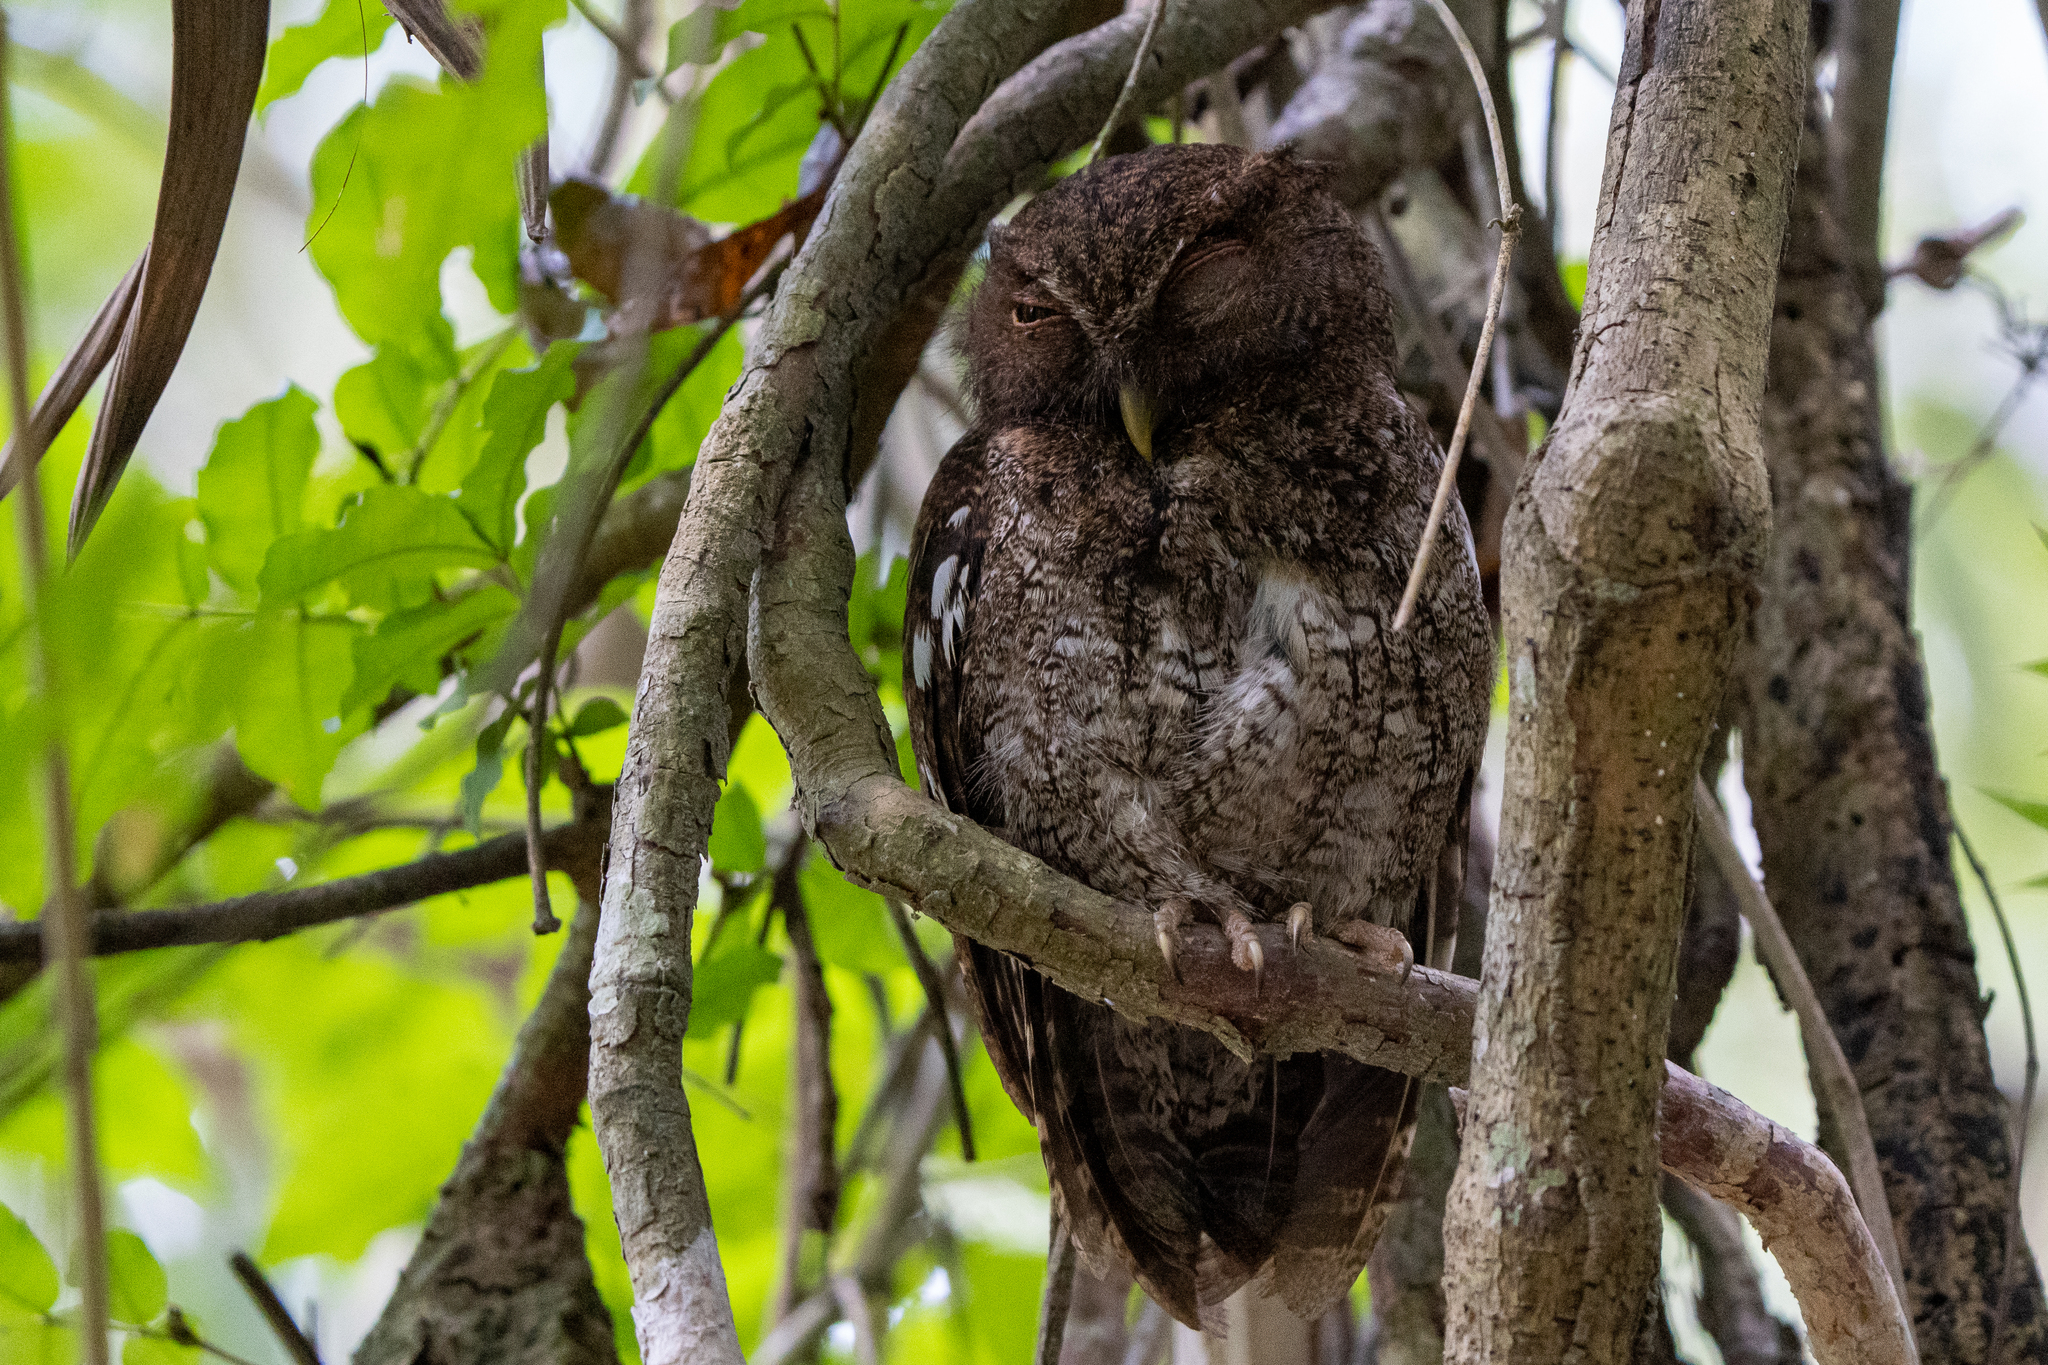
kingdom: Animalia
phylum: Chordata
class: Aves
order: Strigiformes
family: Strigidae
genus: Megascops
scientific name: Megascops centralis
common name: Choco screech owl
